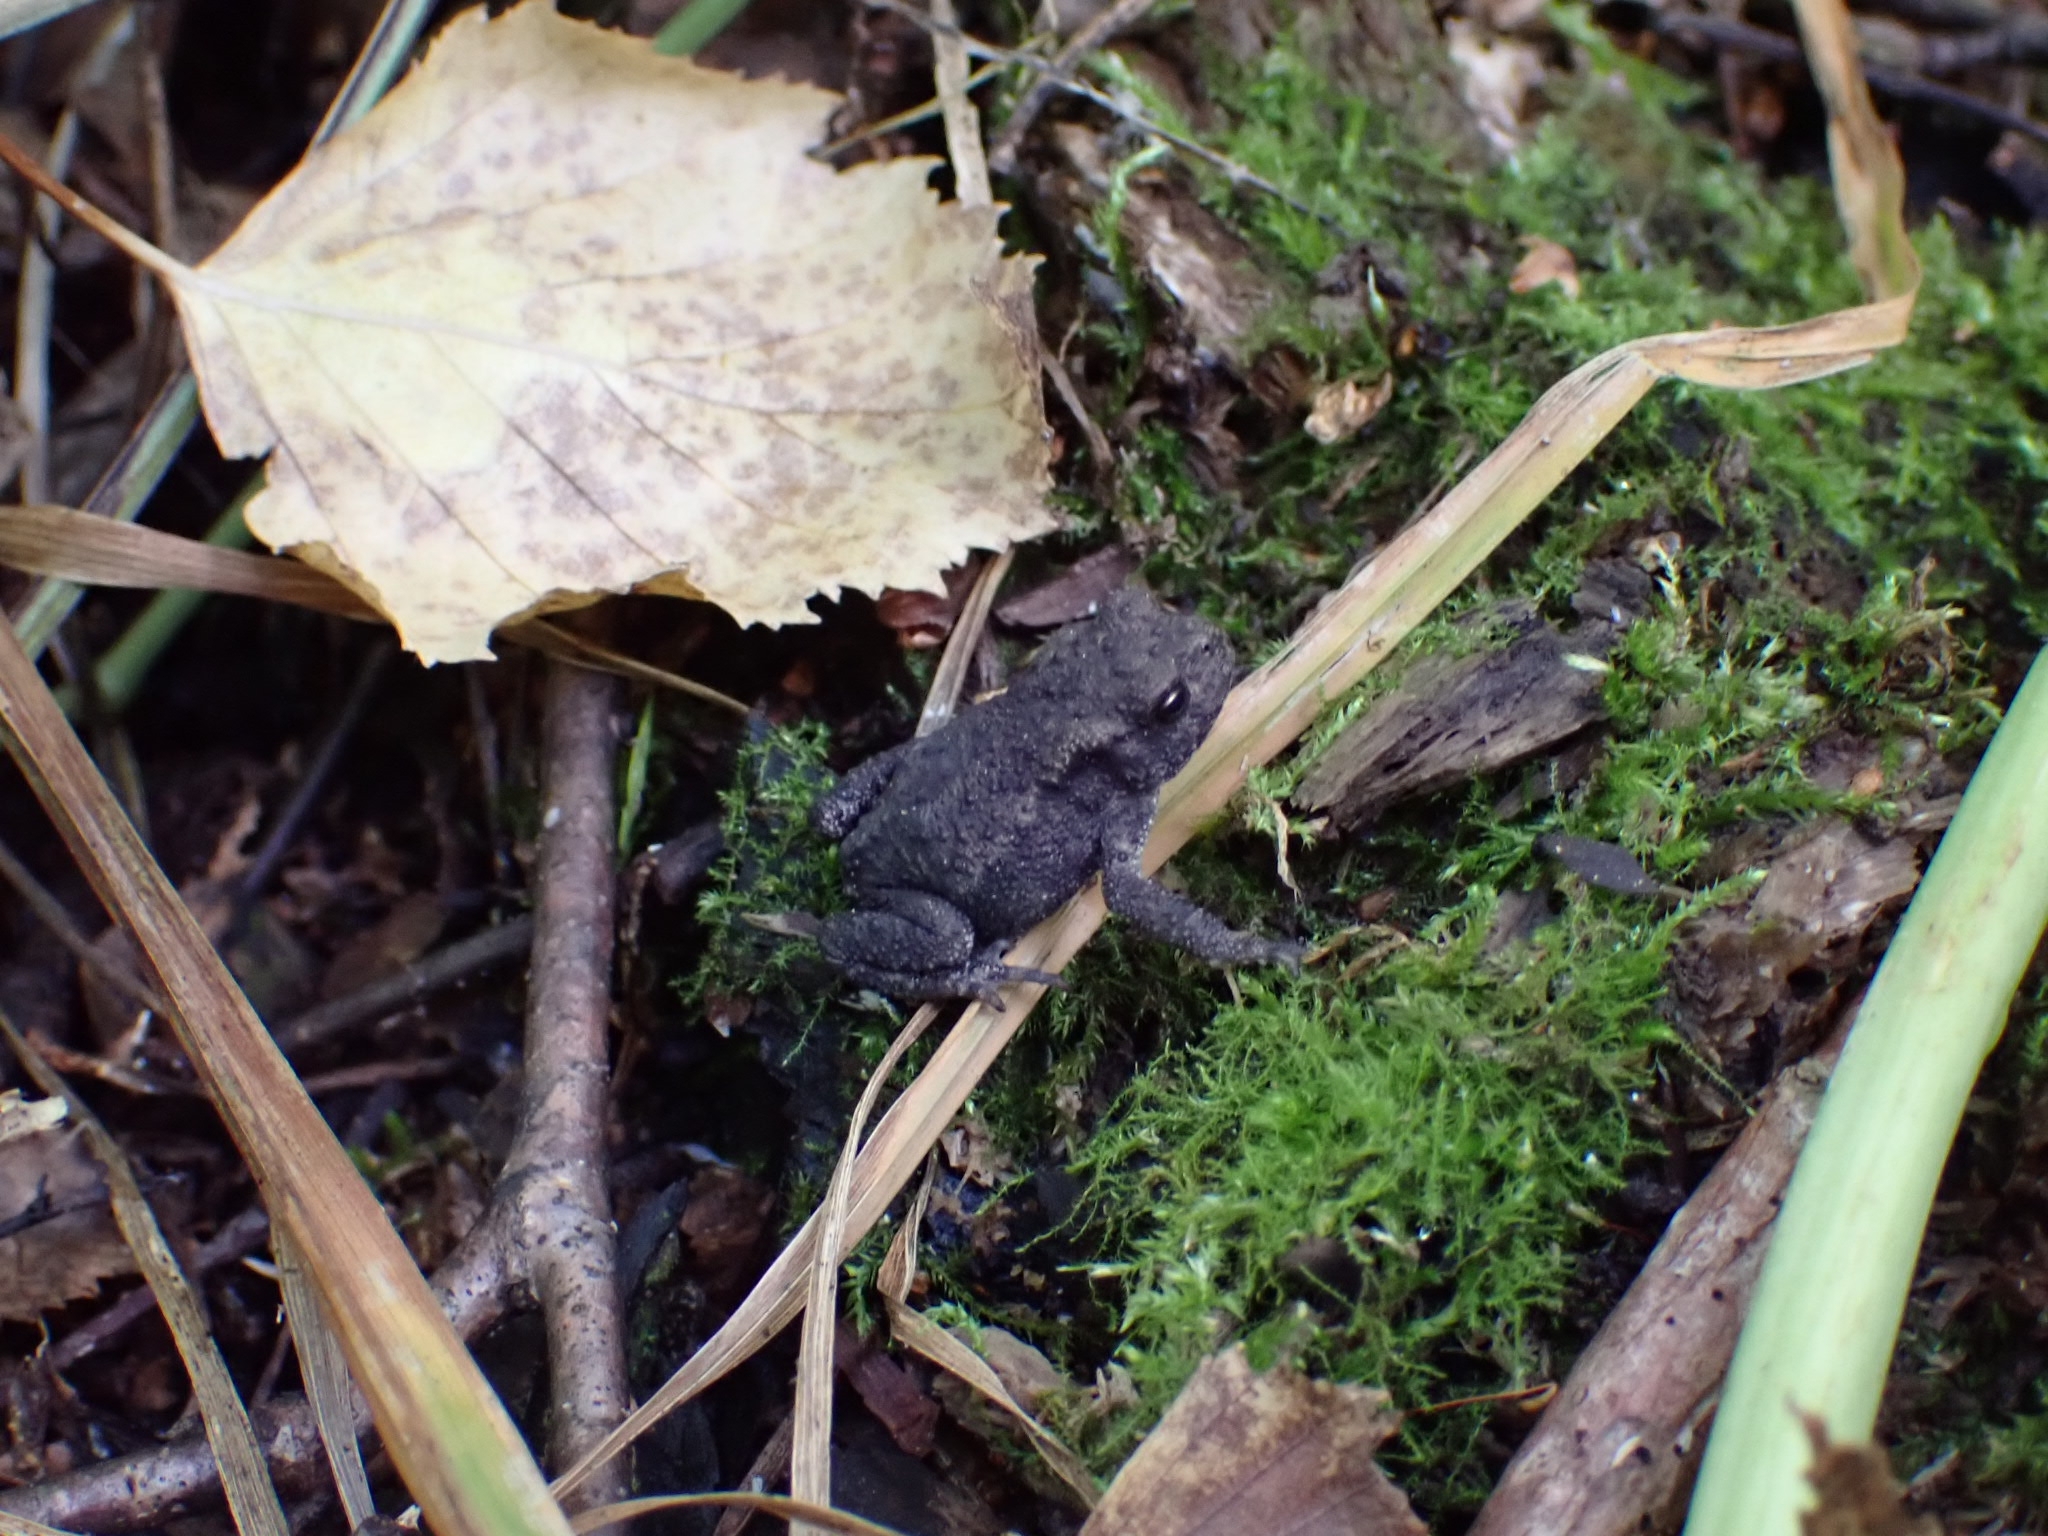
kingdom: Animalia
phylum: Chordata
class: Amphibia
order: Anura
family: Bufonidae
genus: Bufo
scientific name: Bufo bufo
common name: Common toad
